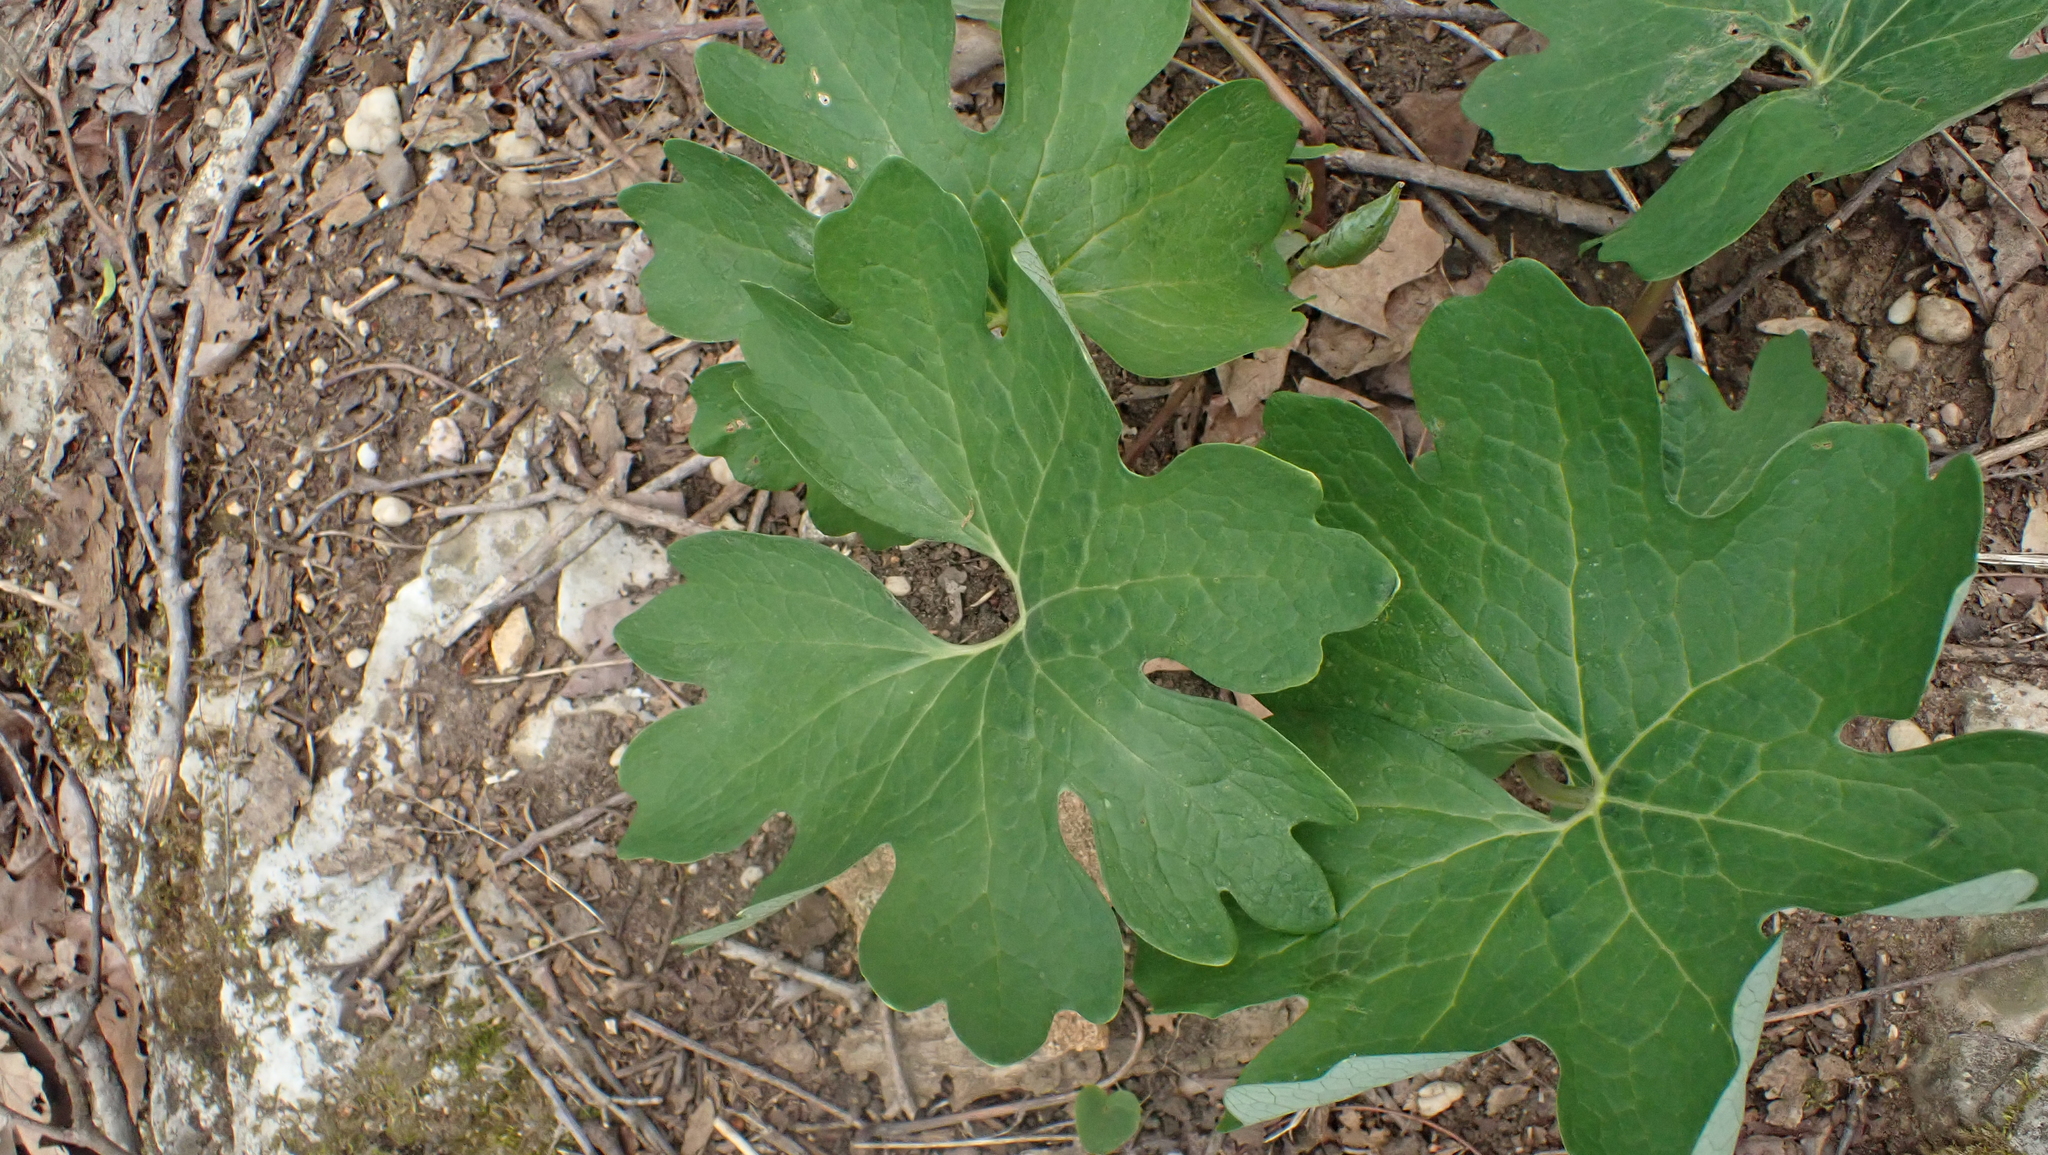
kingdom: Plantae
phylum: Tracheophyta
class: Magnoliopsida
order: Ranunculales
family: Papaveraceae
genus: Sanguinaria
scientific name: Sanguinaria canadensis
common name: Bloodroot
